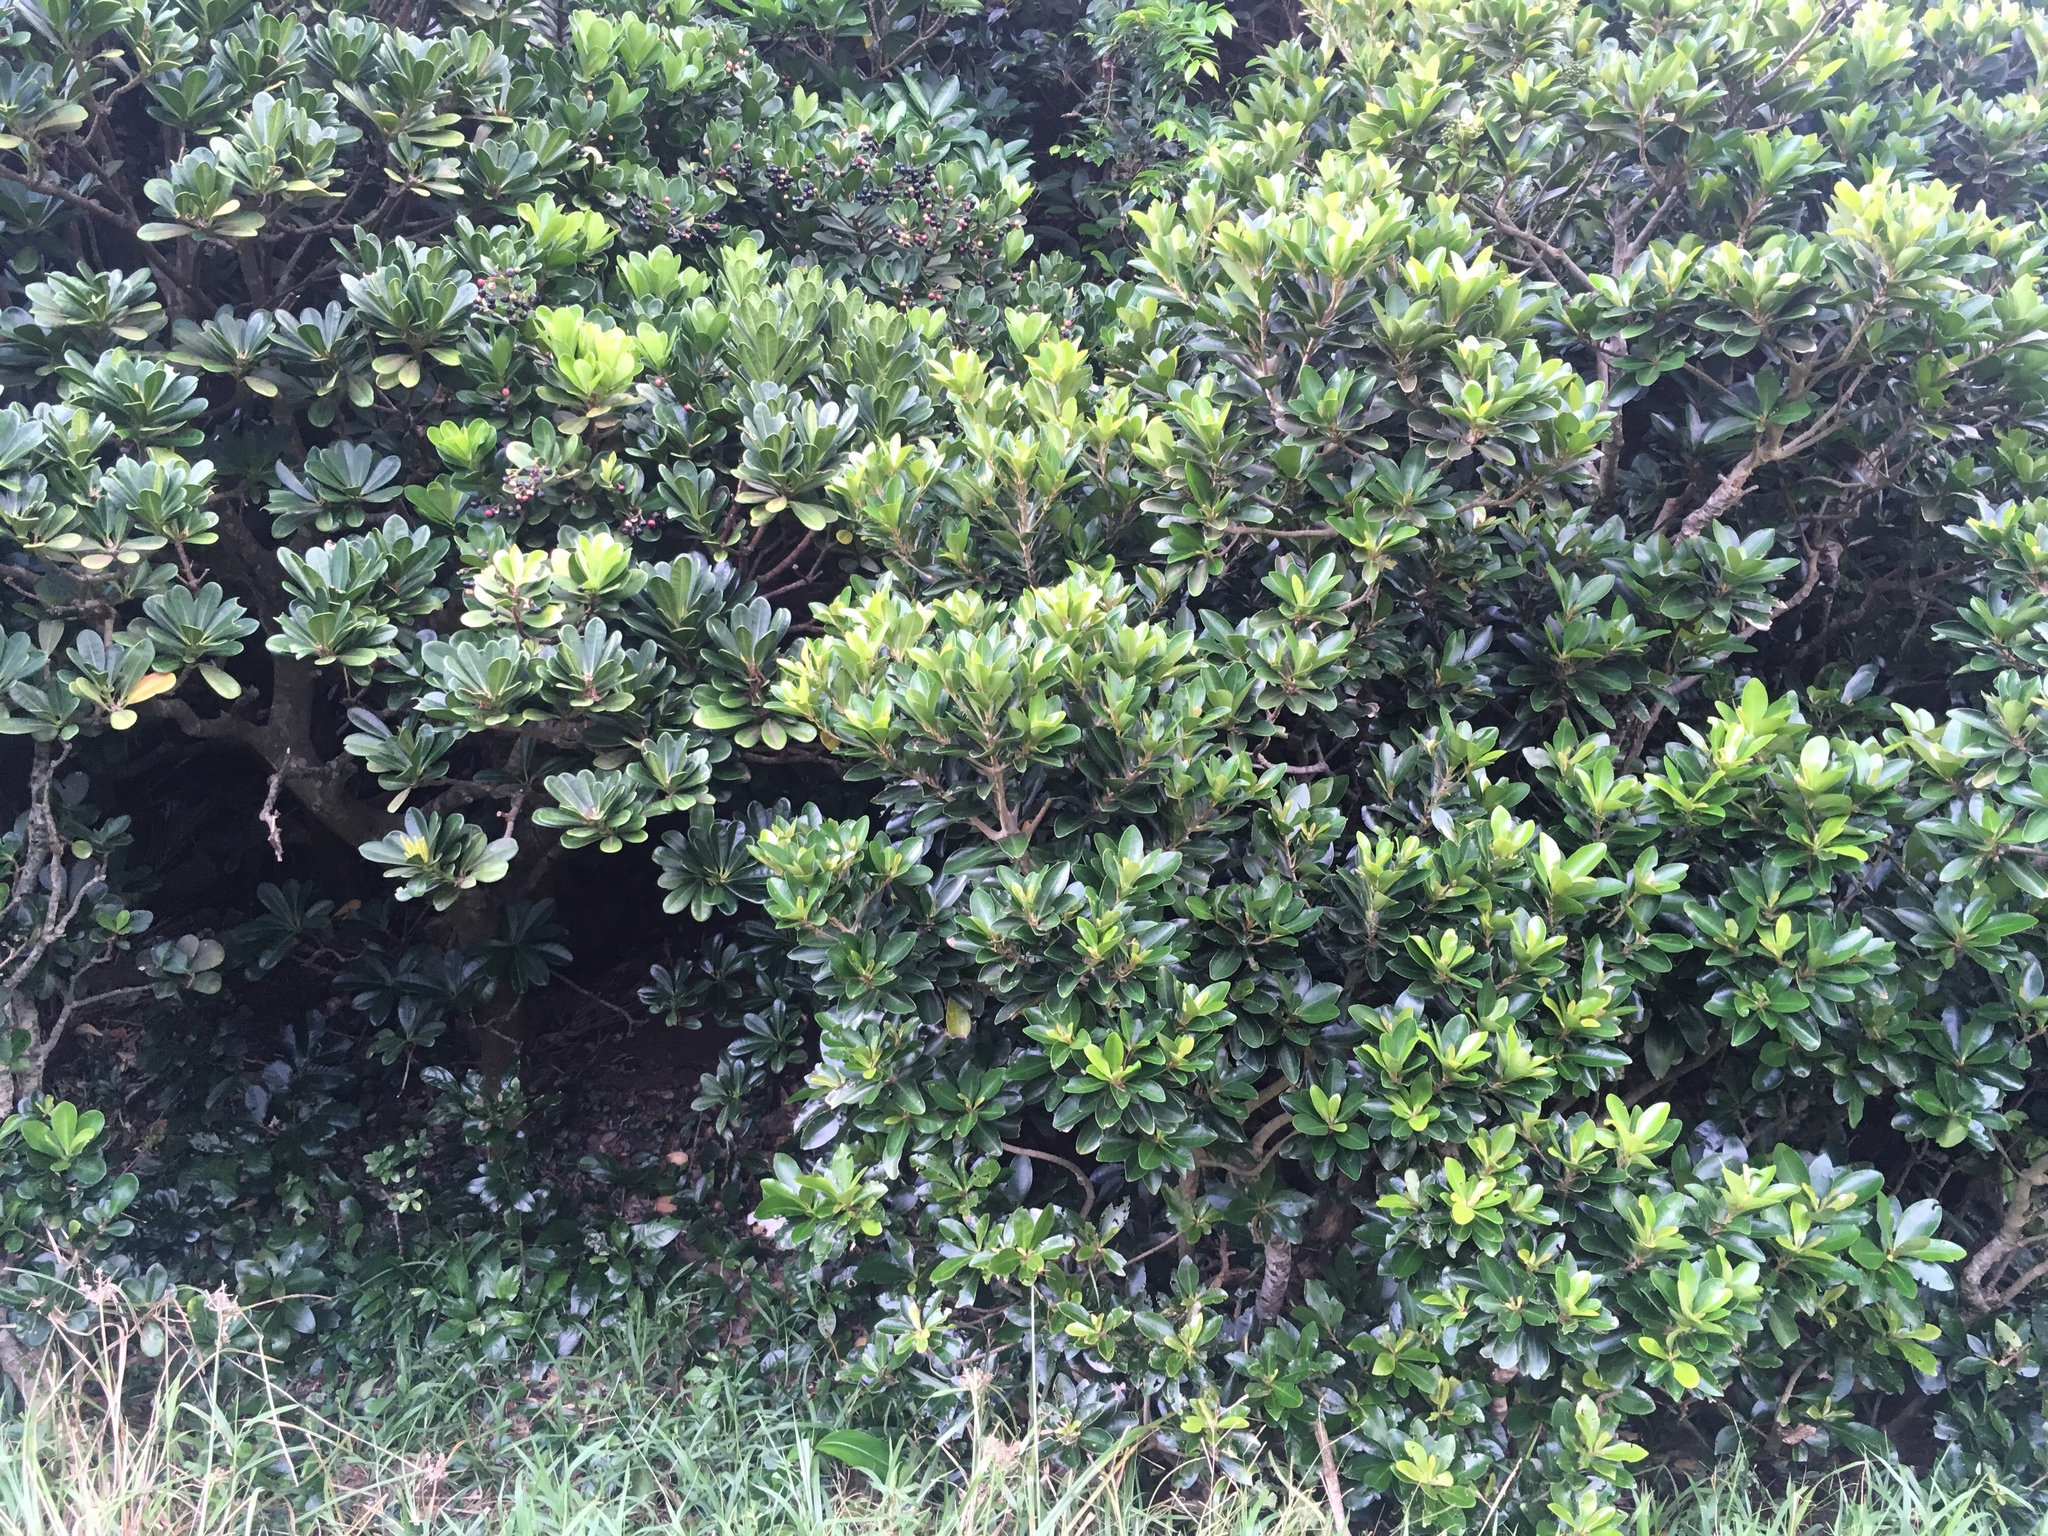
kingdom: Plantae
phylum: Tracheophyta
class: Magnoliopsida
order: Ericales
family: Primulaceae
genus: Ardisia
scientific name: Ardisia elliptica
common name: Shoebutton
